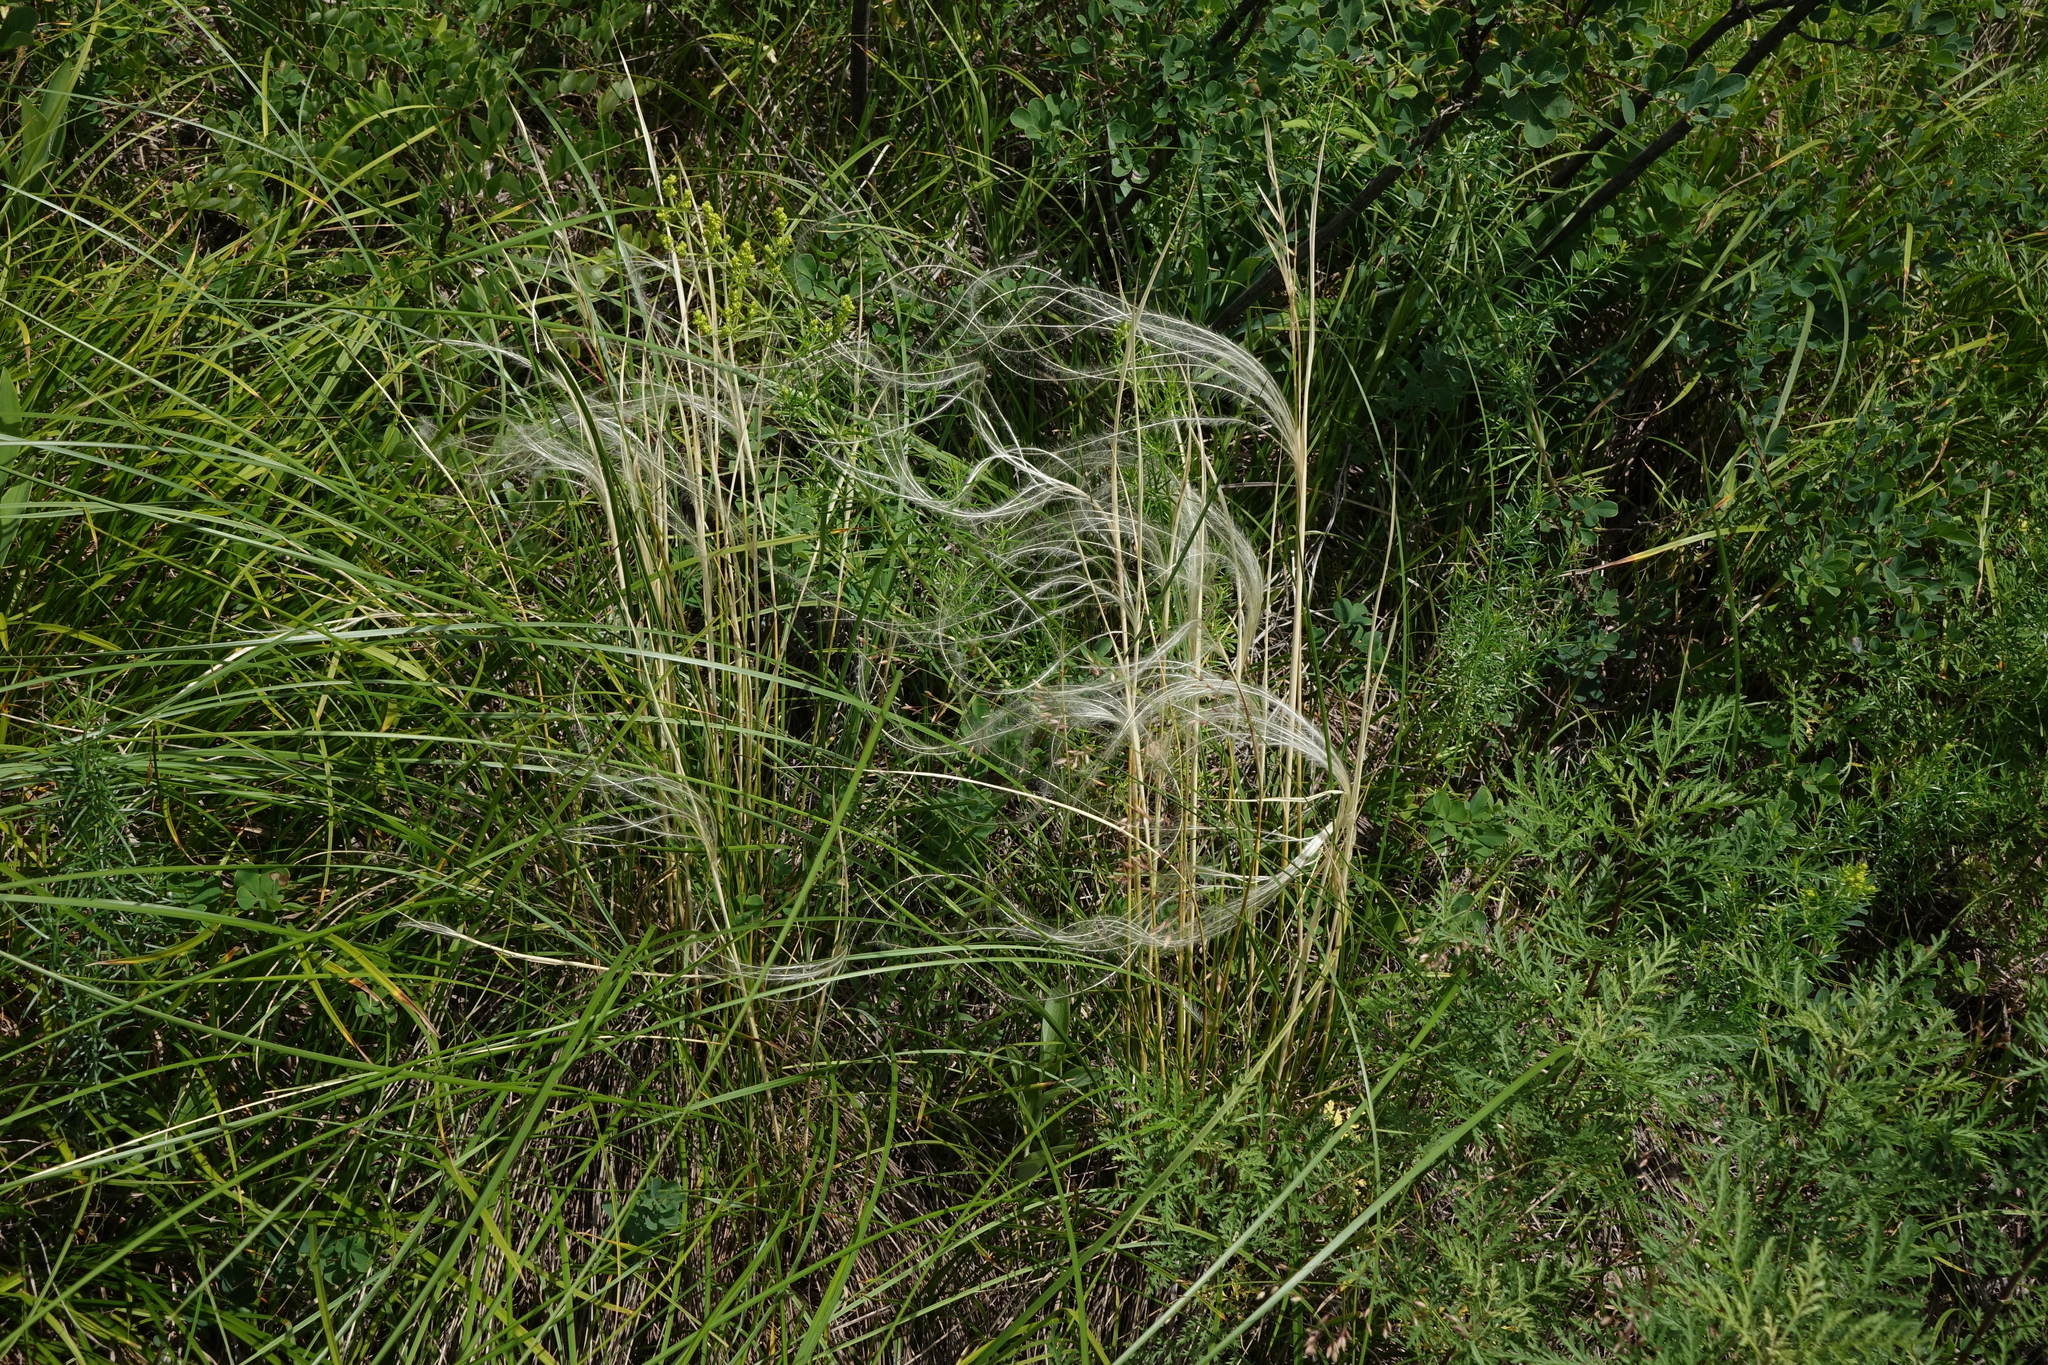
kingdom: Plantae
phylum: Tracheophyta
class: Liliopsida
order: Poales
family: Poaceae
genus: Stipa
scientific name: Stipa pennata
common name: European feather grass
